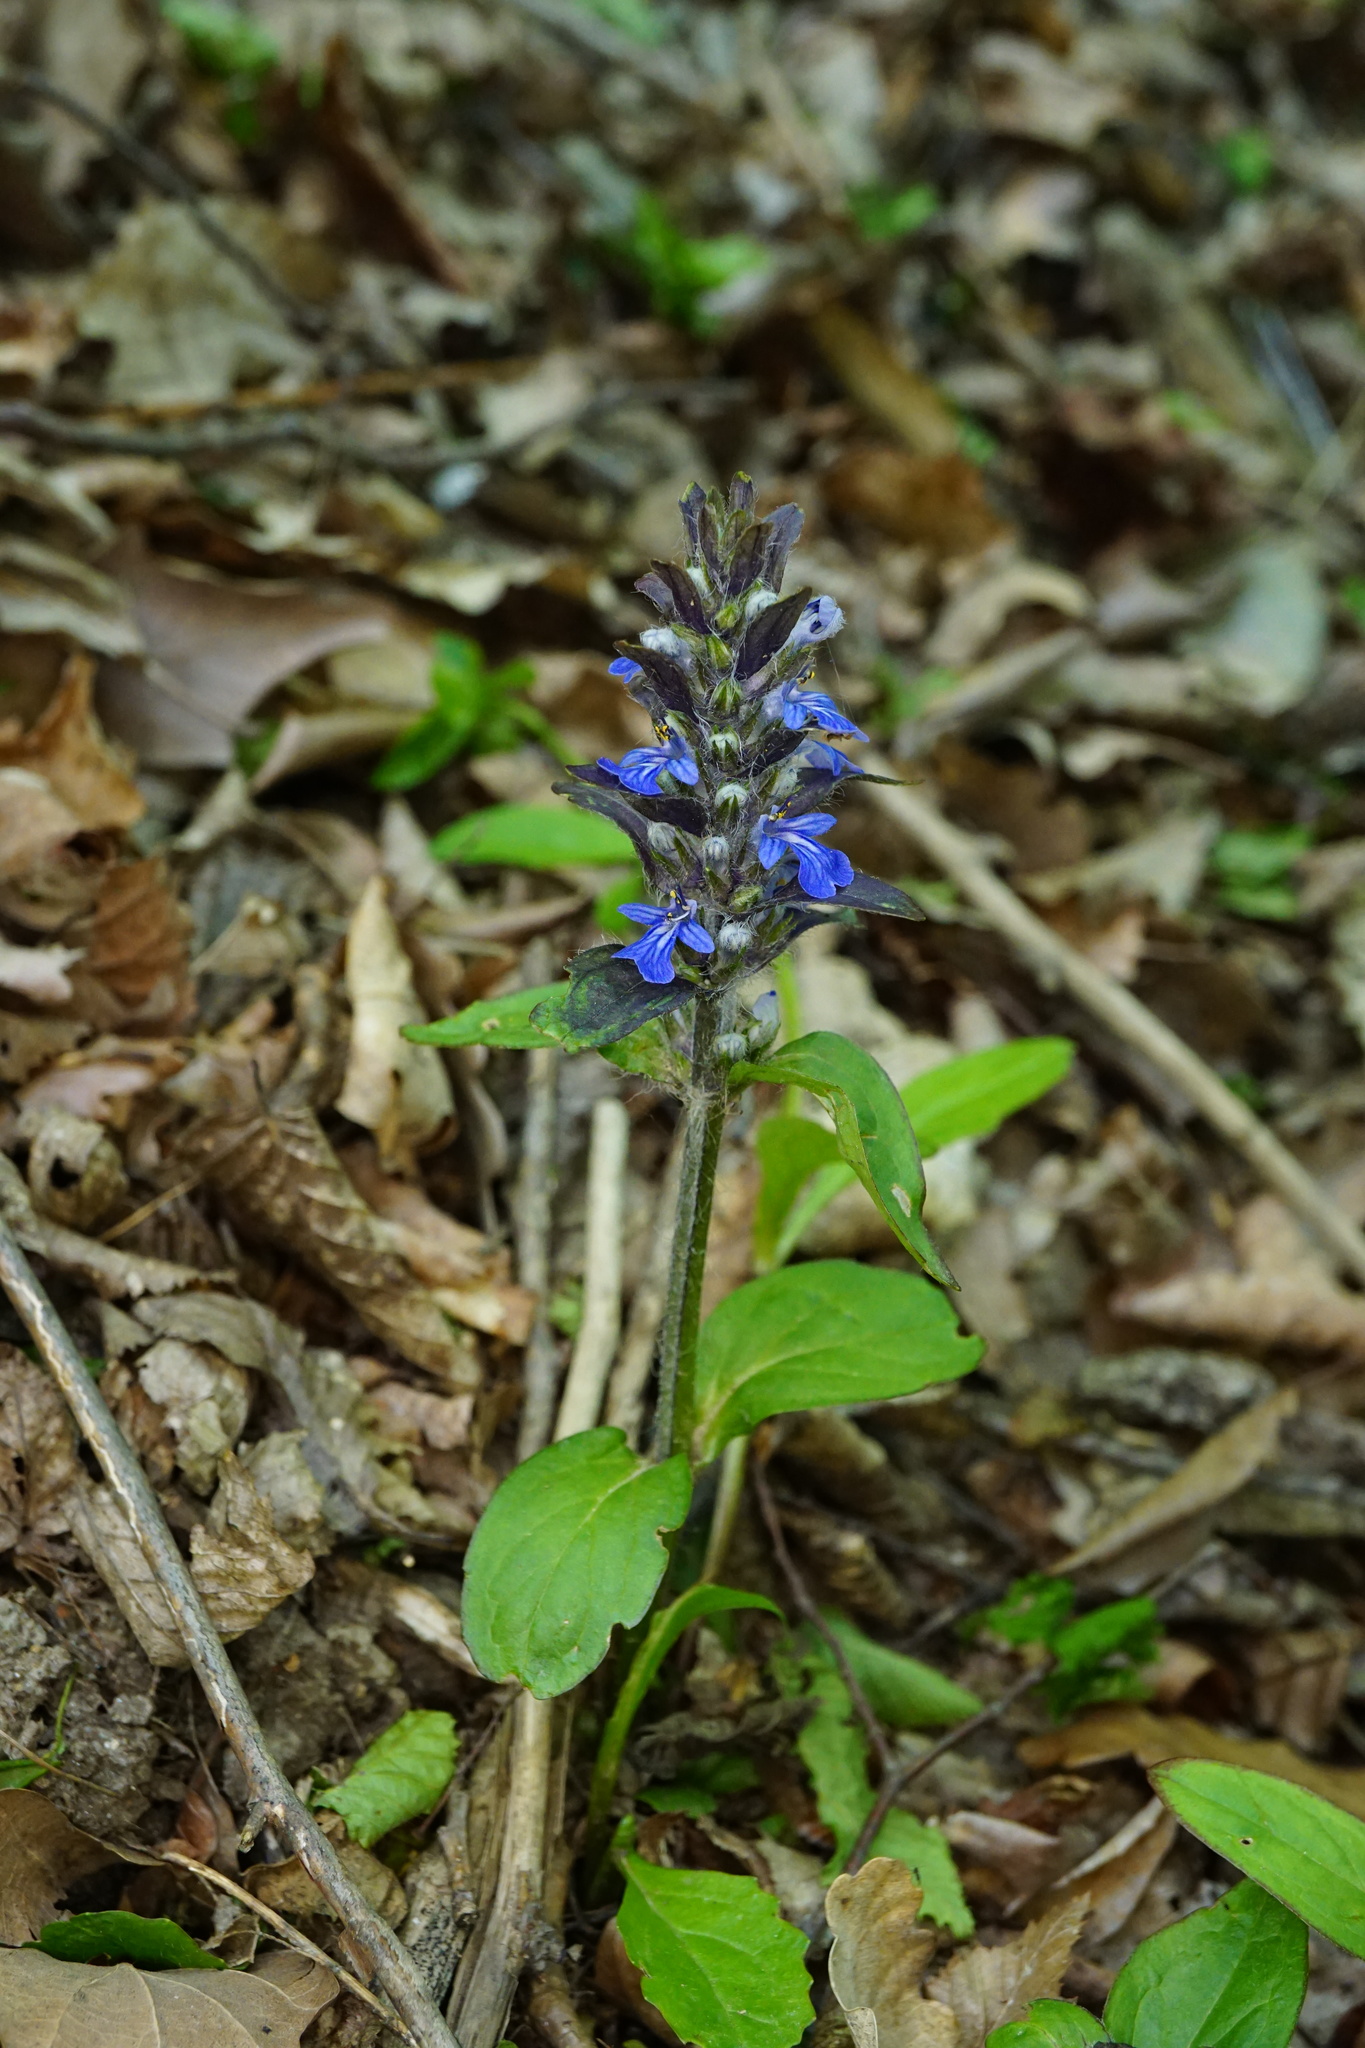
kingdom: Plantae
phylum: Tracheophyta
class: Magnoliopsida
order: Lamiales
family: Lamiaceae
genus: Ajuga
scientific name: Ajuga reptans
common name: Bugle
